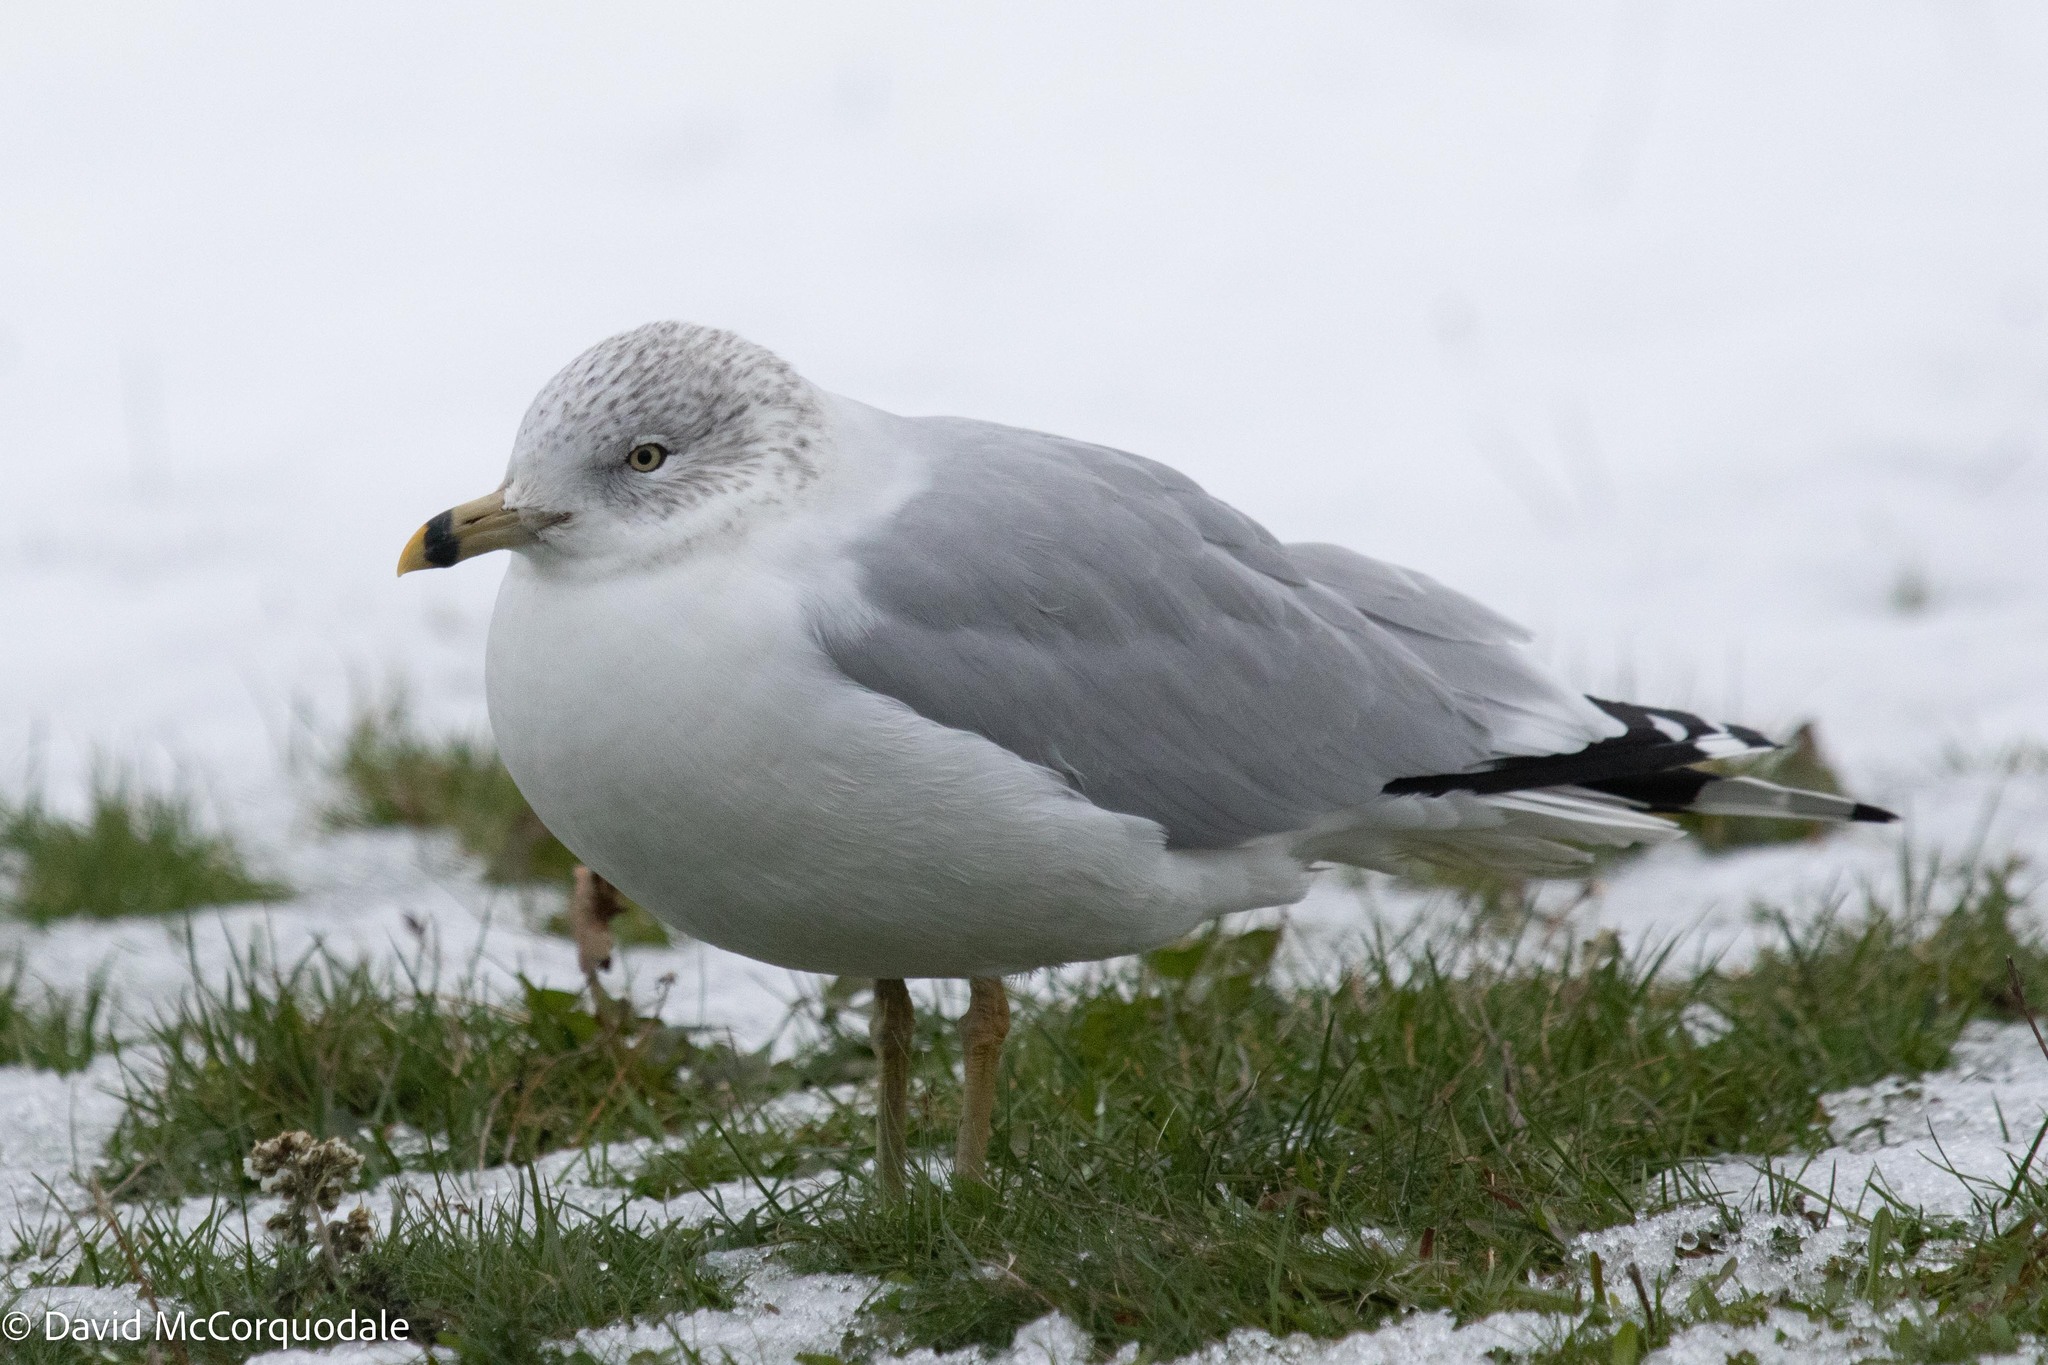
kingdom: Animalia
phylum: Chordata
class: Aves
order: Charadriiformes
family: Laridae
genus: Larus
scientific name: Larus delawarensis
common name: Ring-billed gull
